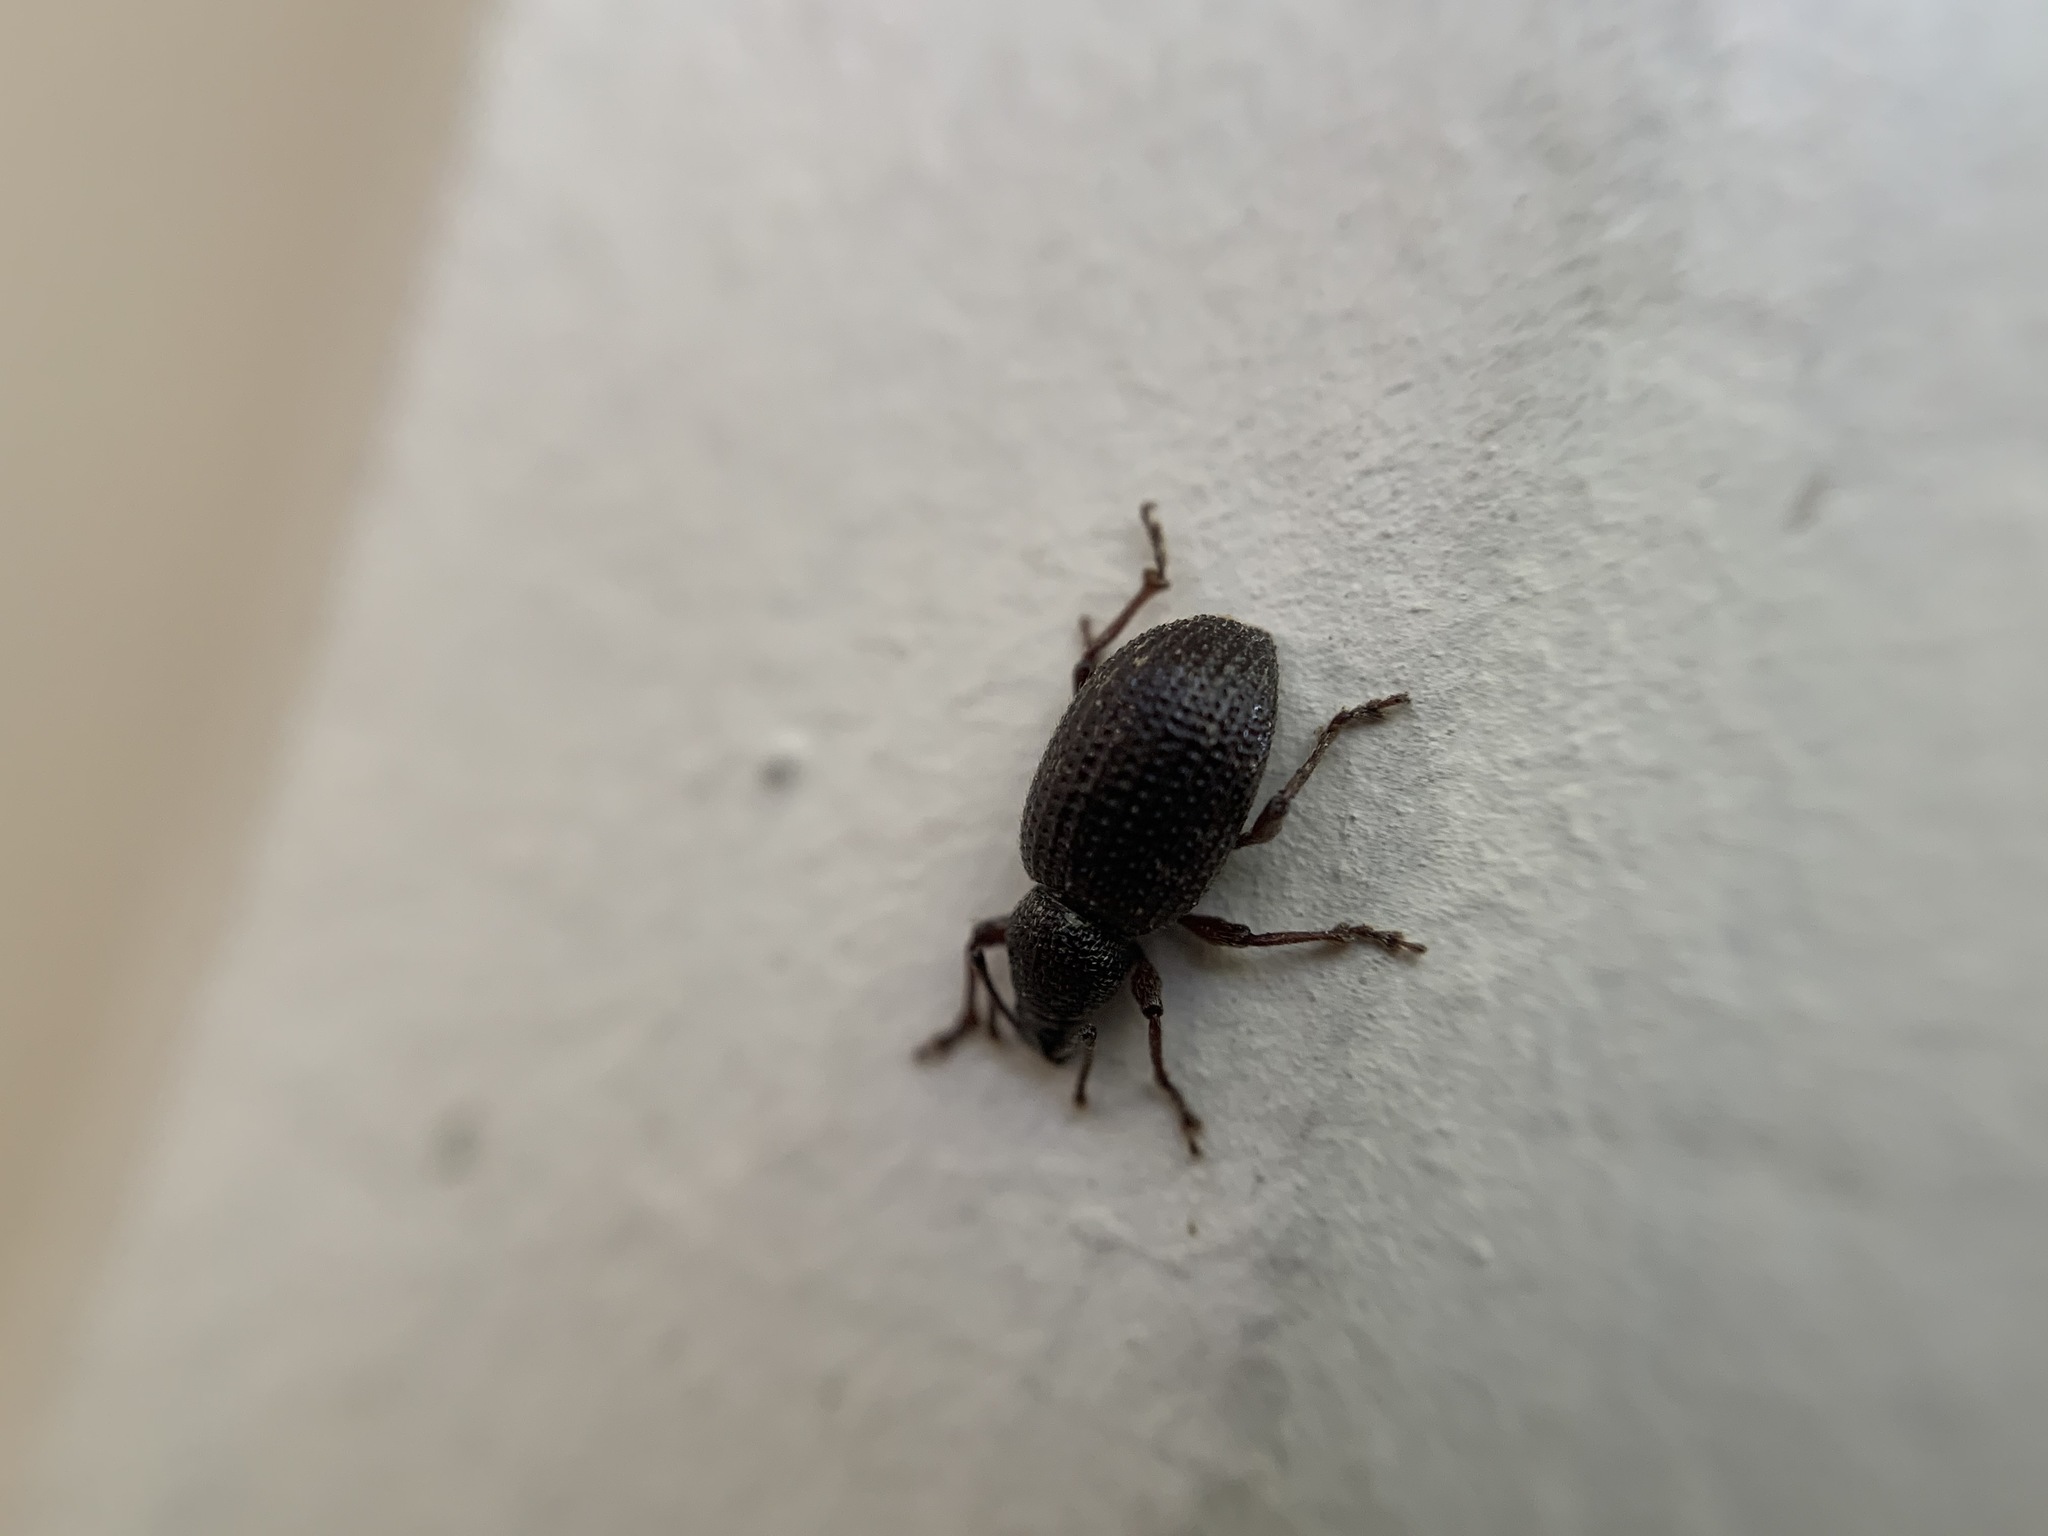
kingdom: Animalia
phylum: Arthropoda
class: Insecta
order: Coleoptera
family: Curculionidae
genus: Otiorhynchus
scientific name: Otiorhynchus rugosostriatus
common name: Weevil
